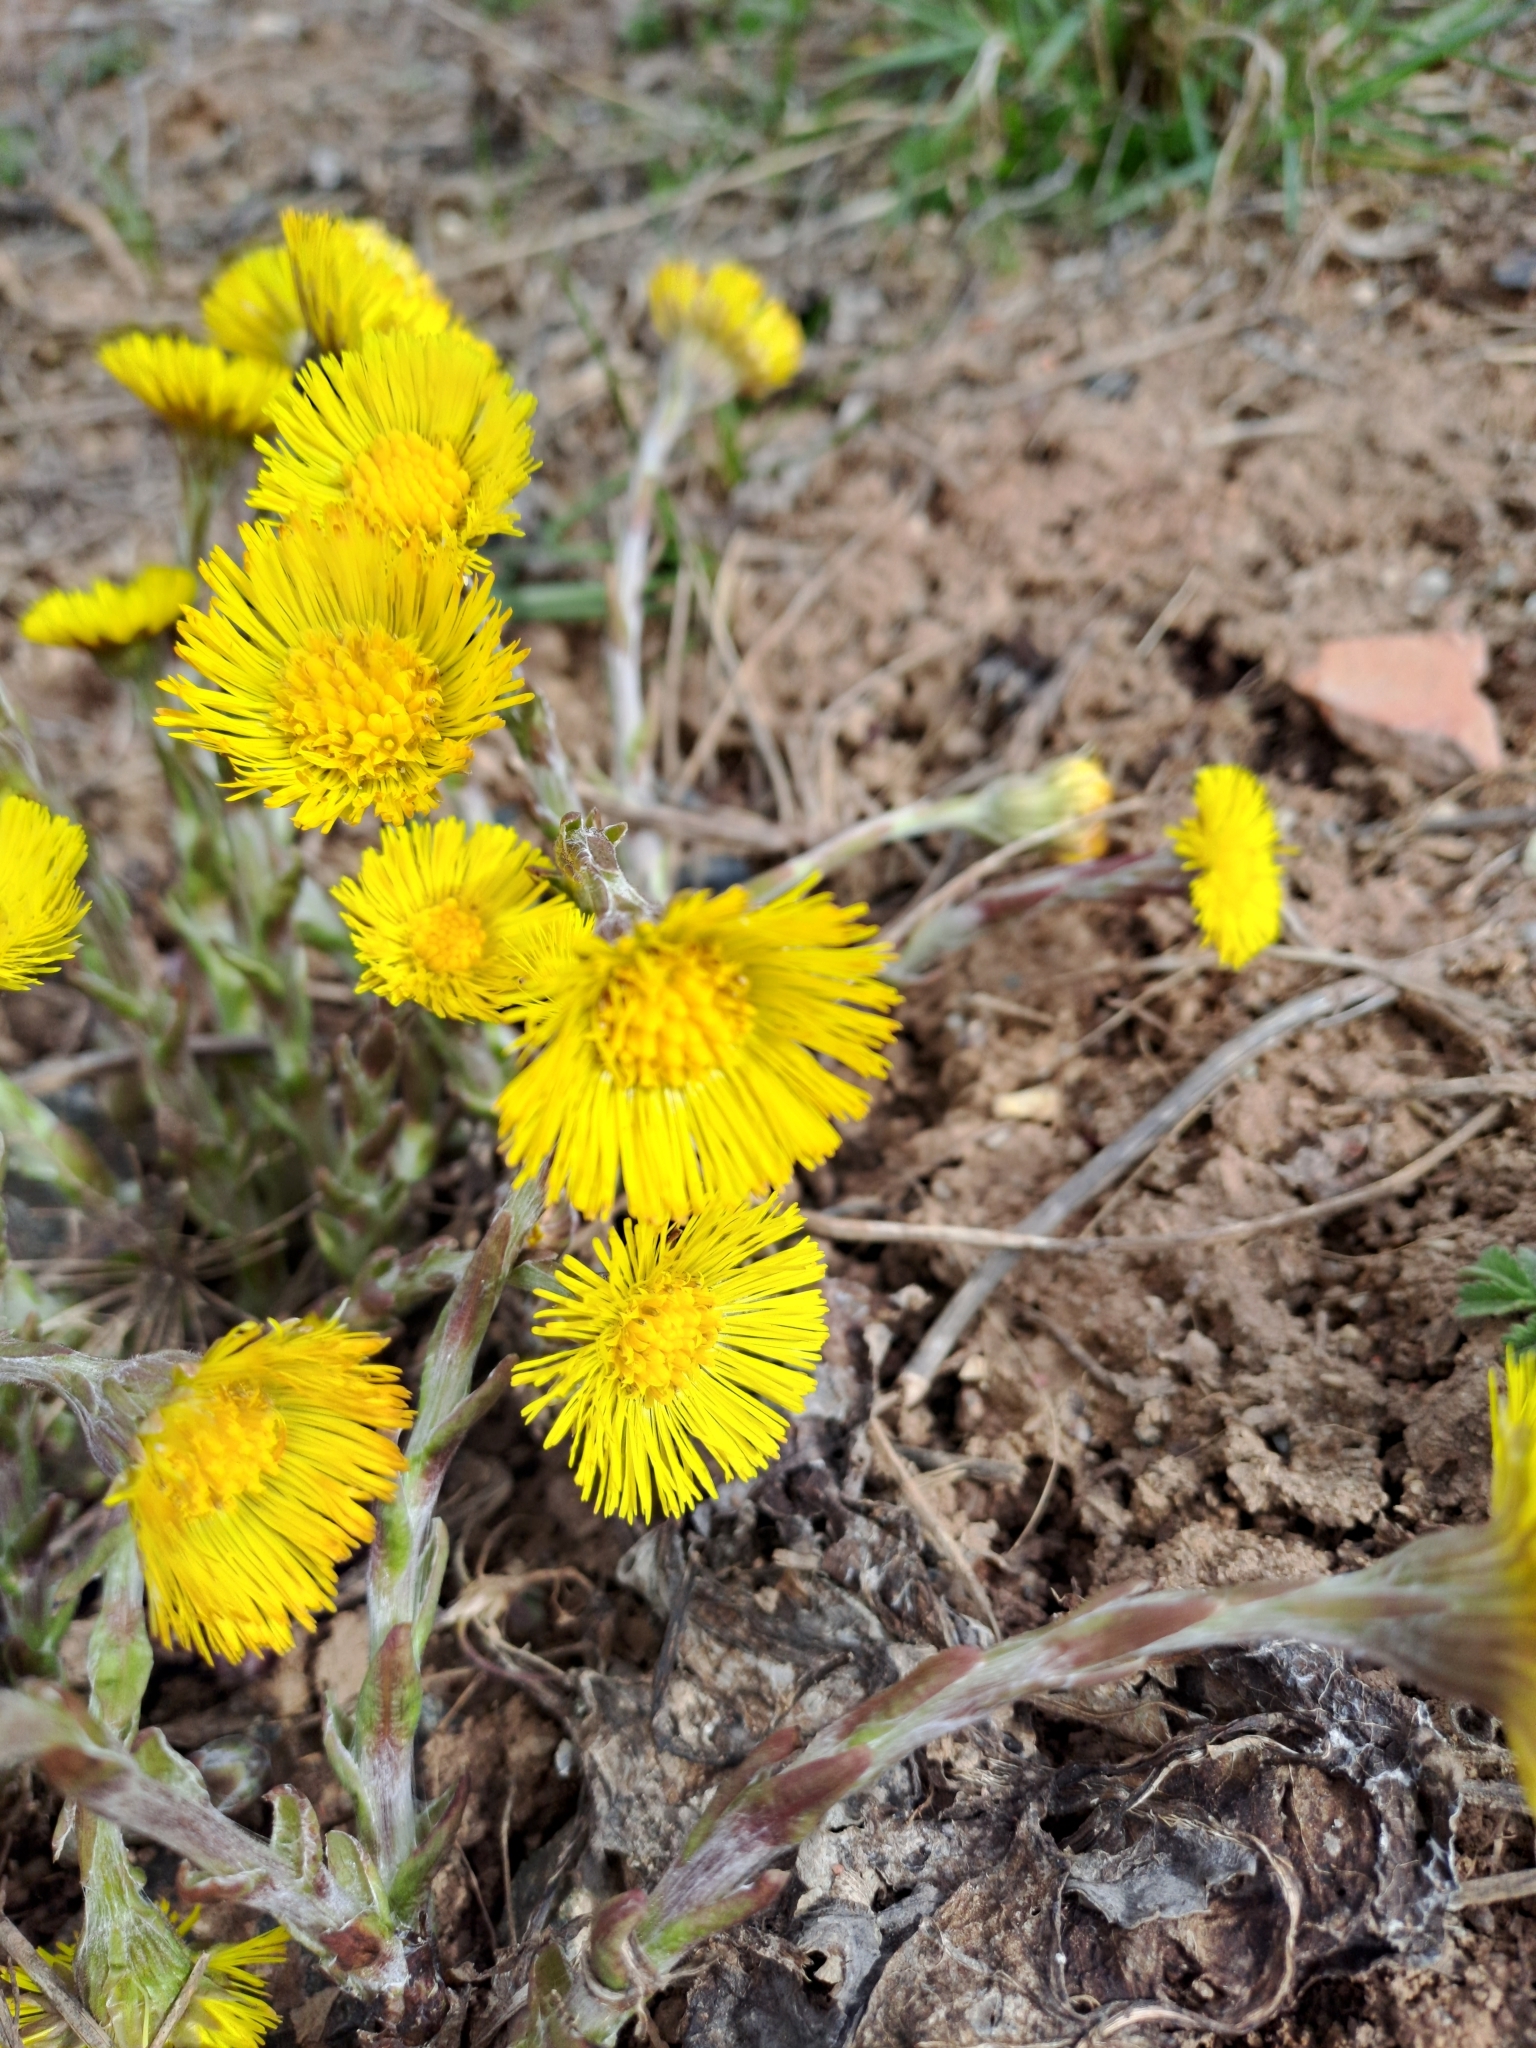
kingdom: Plantae
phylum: Tracheophyta
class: Magnoliopsida
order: Asterales
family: Asteraceae
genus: Tussilago
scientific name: Tussilago farfara
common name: Coltsfoot
